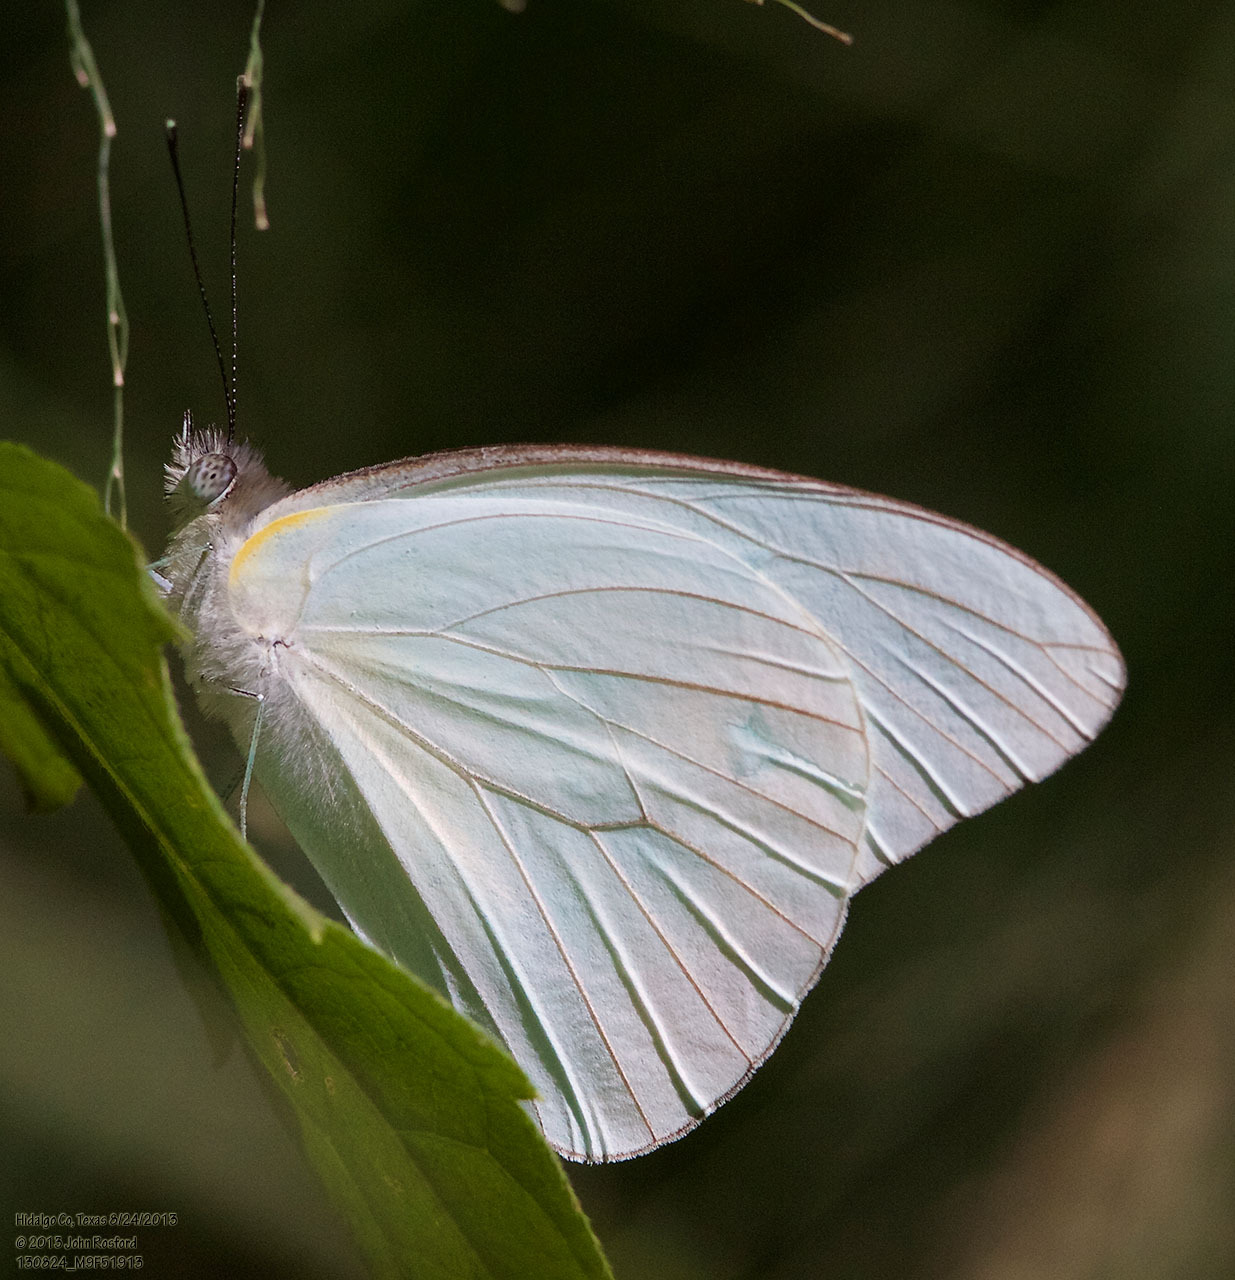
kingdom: Animalia
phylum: Arthropoda
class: Insecta
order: Lepidoptera
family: Pieridae
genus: Glutophrissa
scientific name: Glutophrissa drusilla
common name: Florida white
